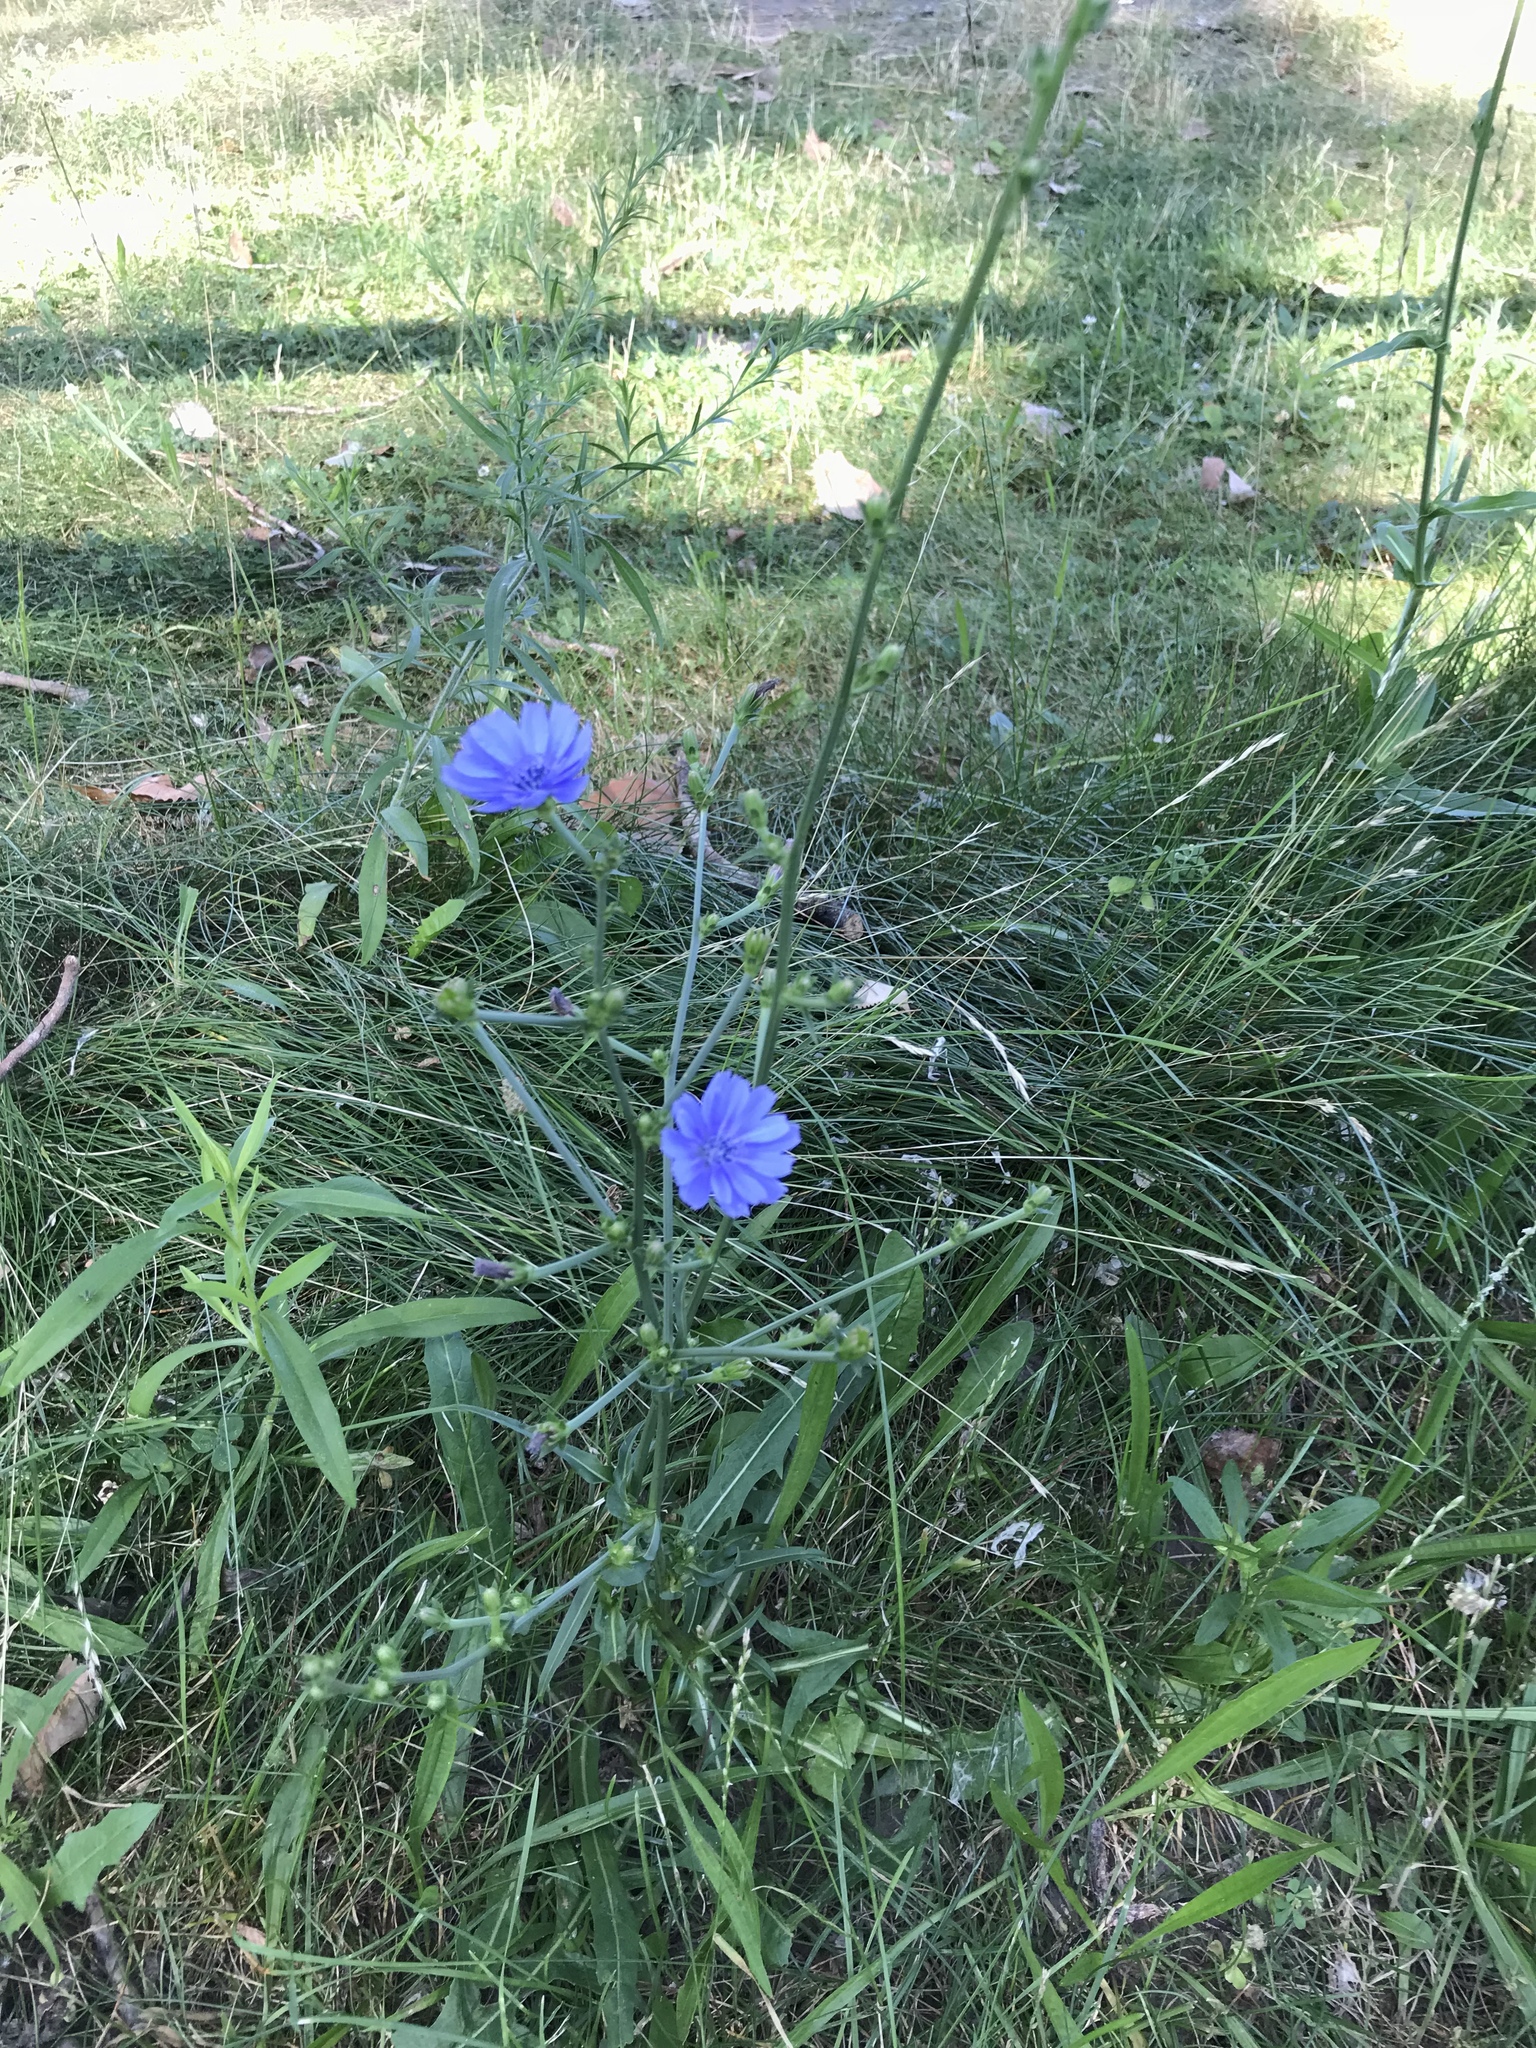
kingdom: Plantae
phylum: Tracheophyta
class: Magnoliopsida
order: Asterales
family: Asteraceae
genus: Cichorium
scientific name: Cichorium intybus
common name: Chicory
